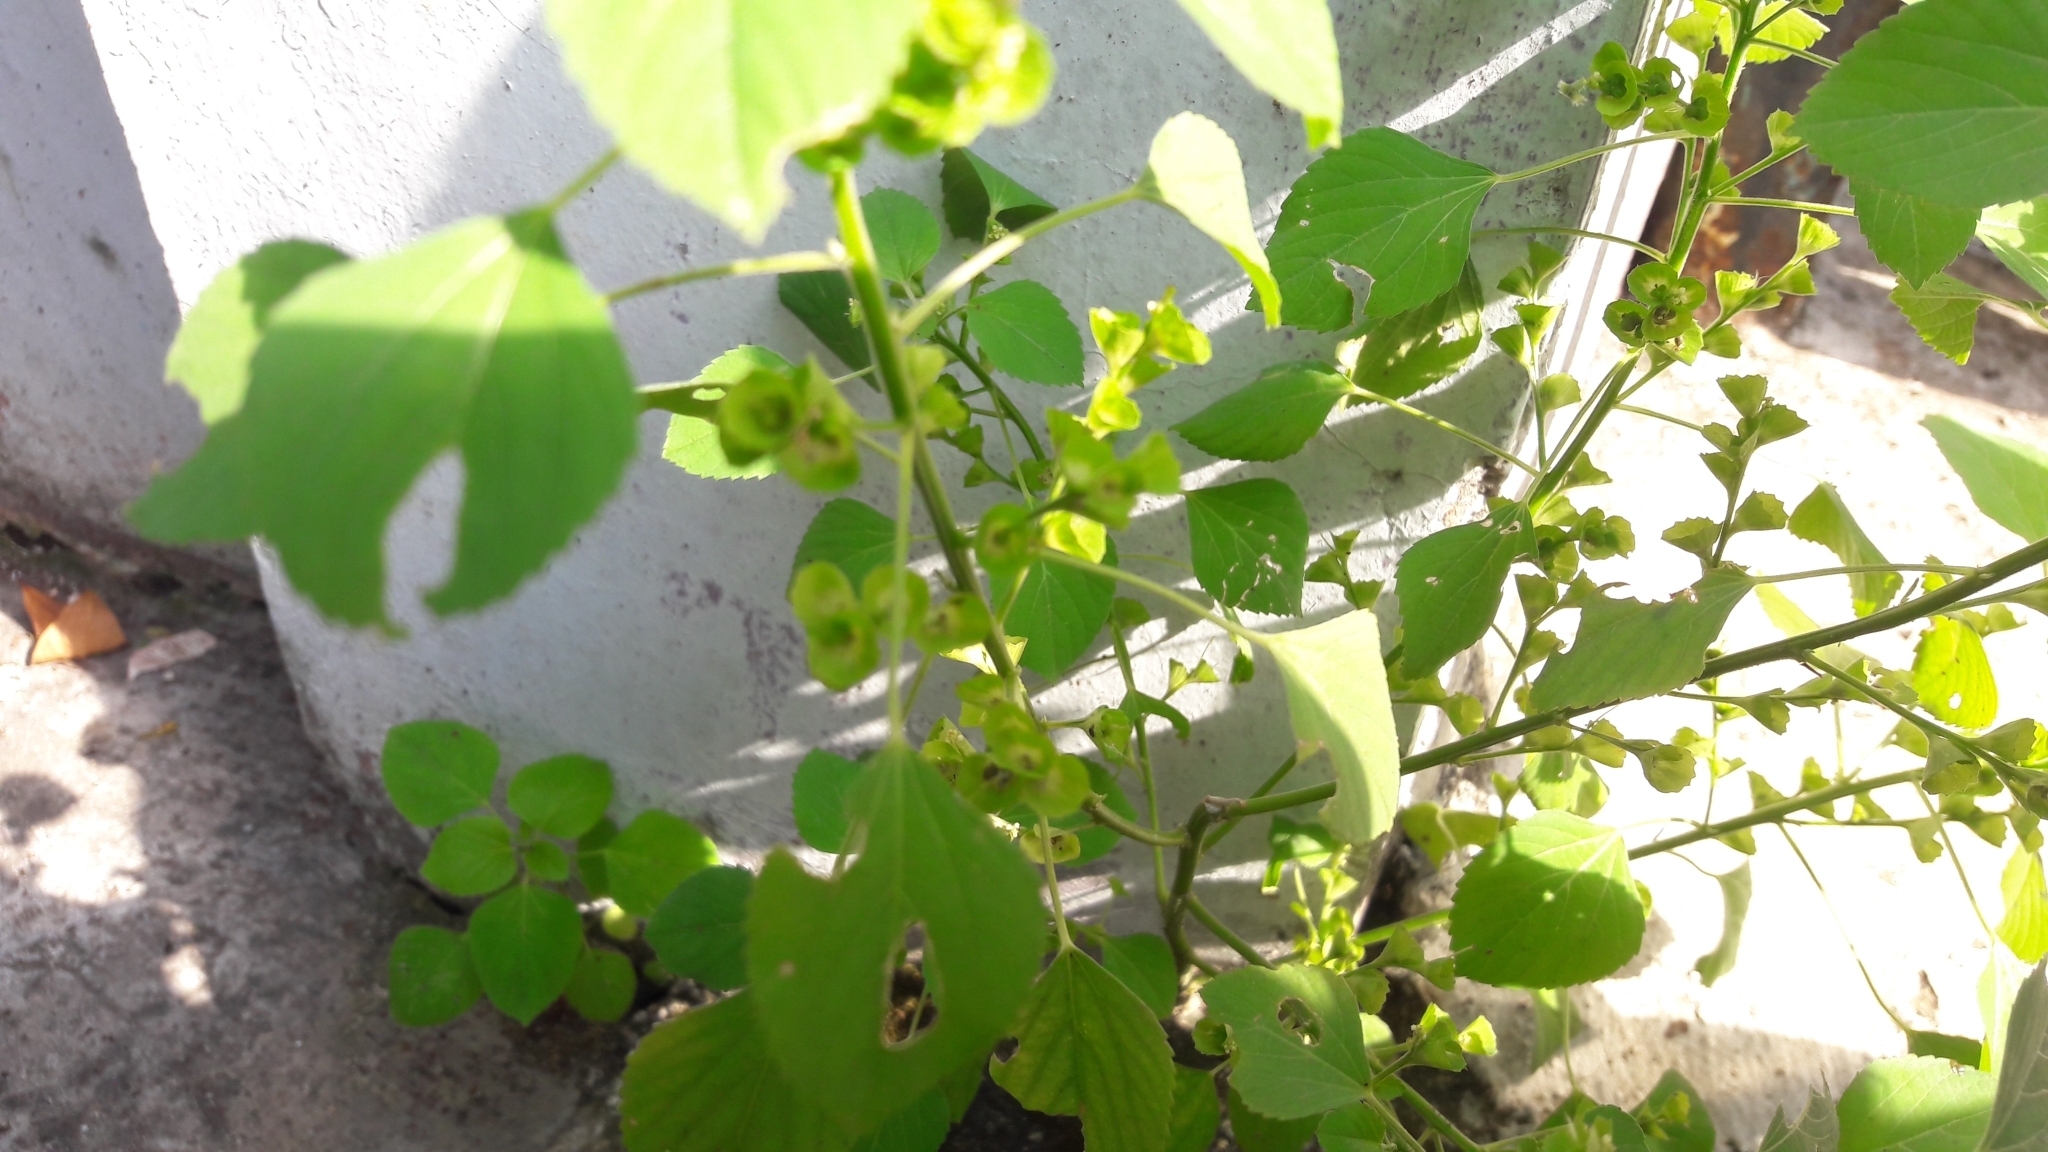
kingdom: Plantae
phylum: Tracheophyta
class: Magnoliopsida
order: Malpighiales
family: Euphorbiaceae
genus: Acalypha
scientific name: Acalypha indica
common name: Indian acalypha
